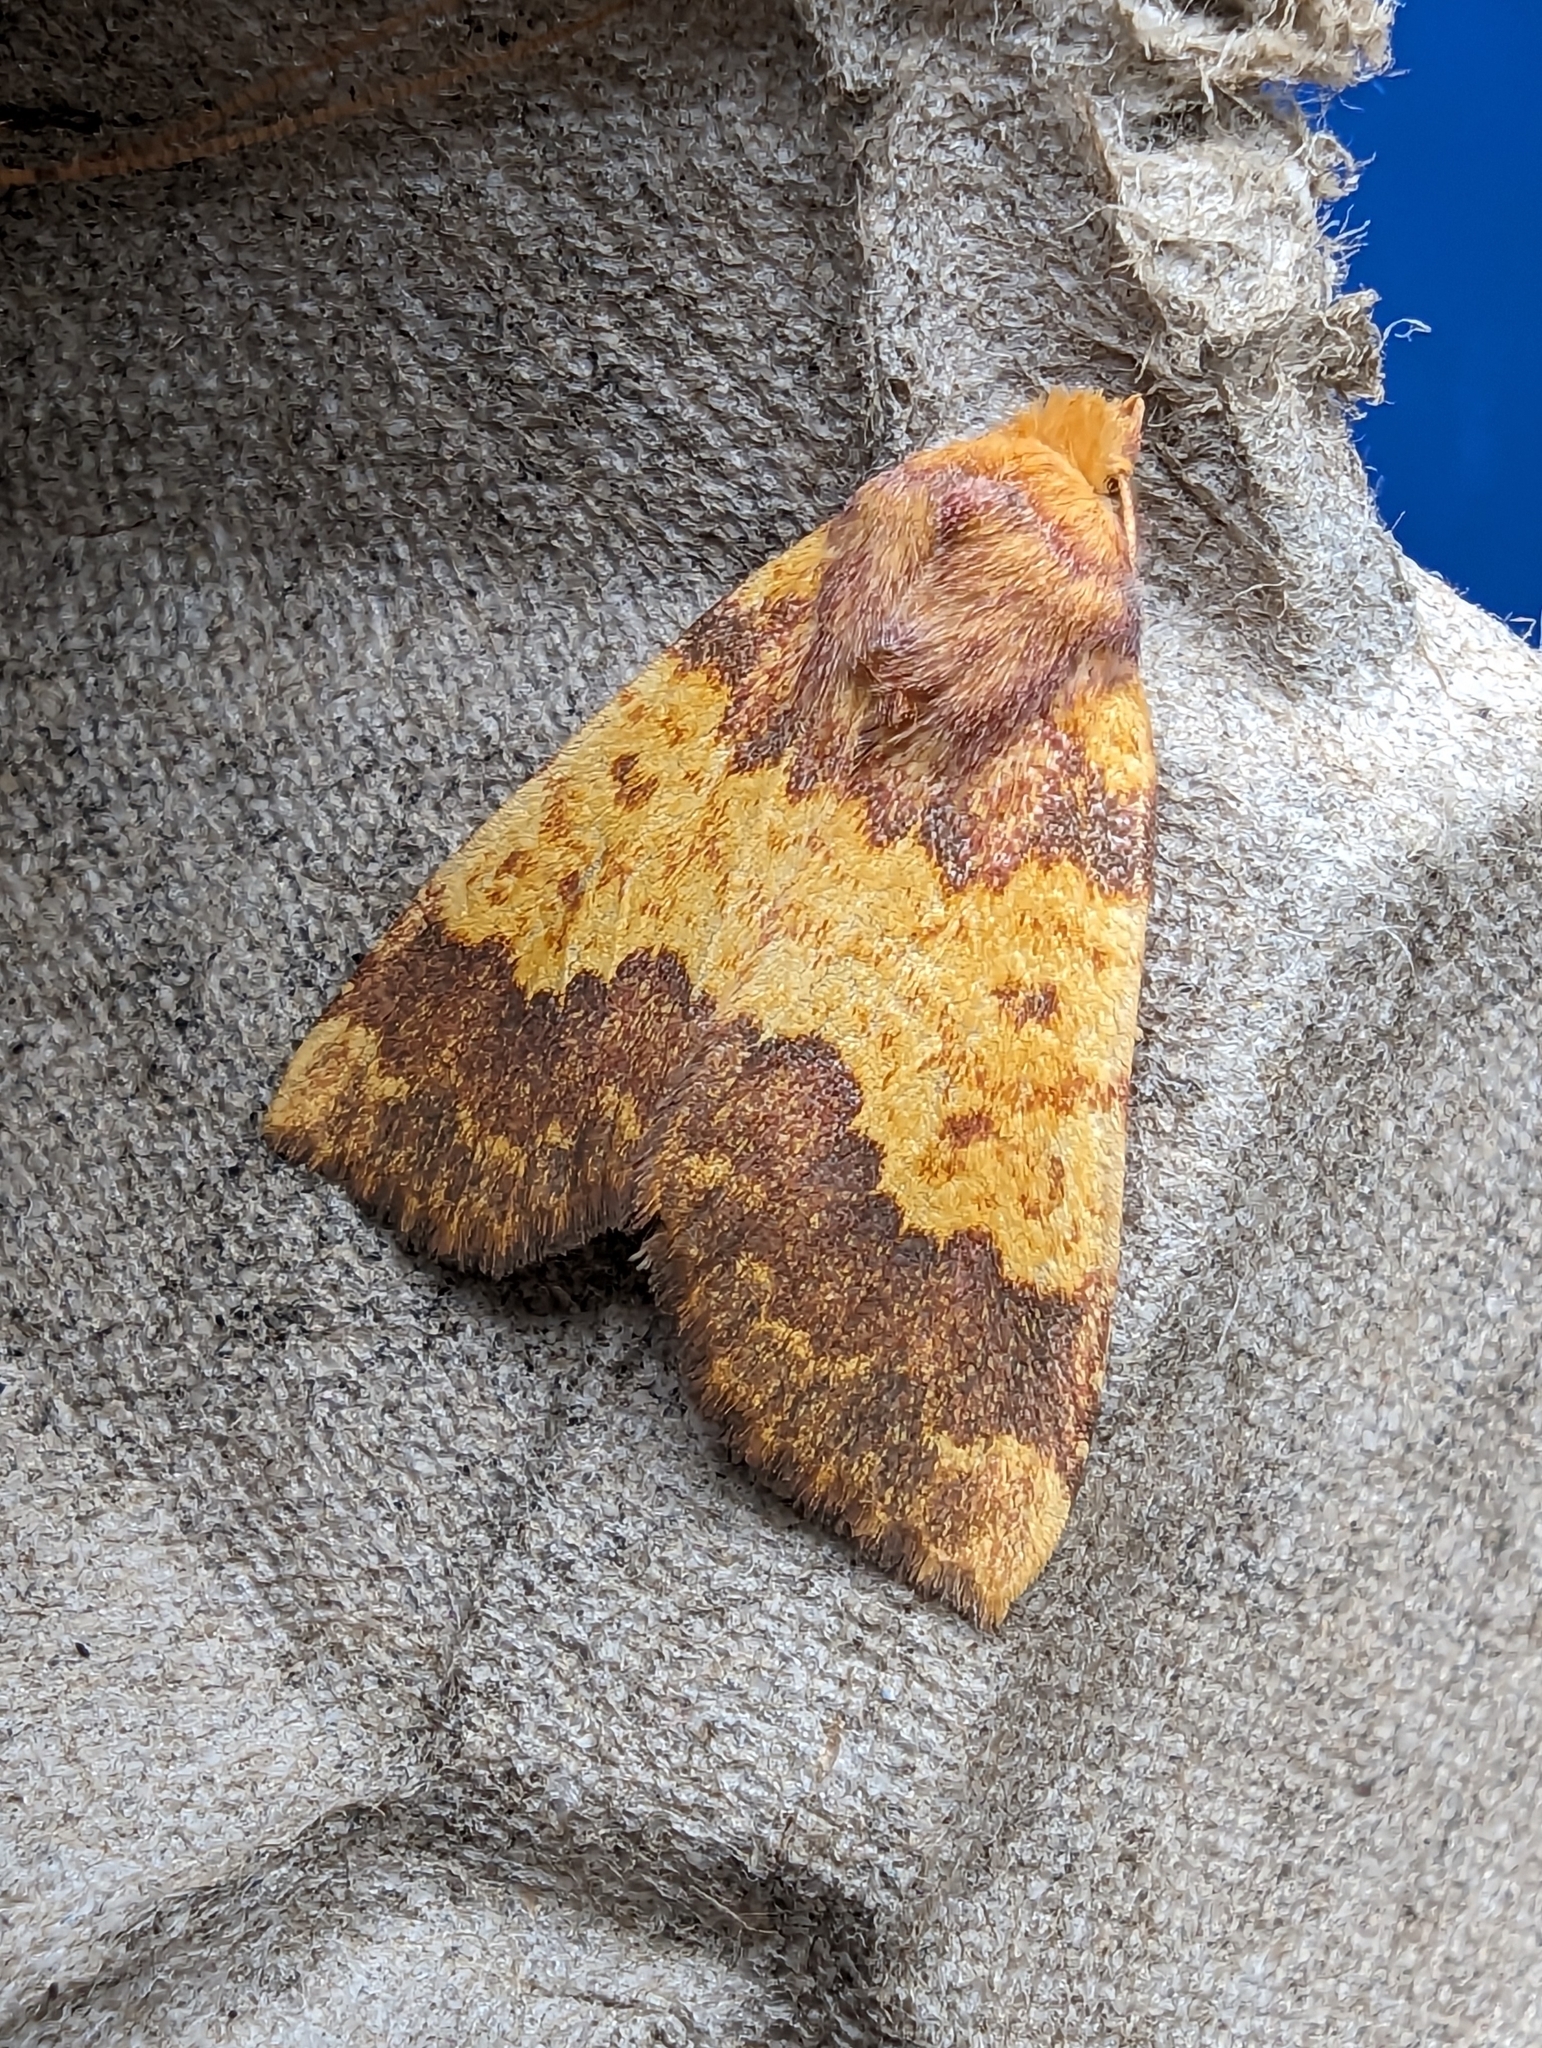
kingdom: Animalia
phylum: Arthropoda
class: Insecta
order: Lepidoptera
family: Noctuidae
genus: Tiliacea
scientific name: Tiliacea aurago
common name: Barred sallow
